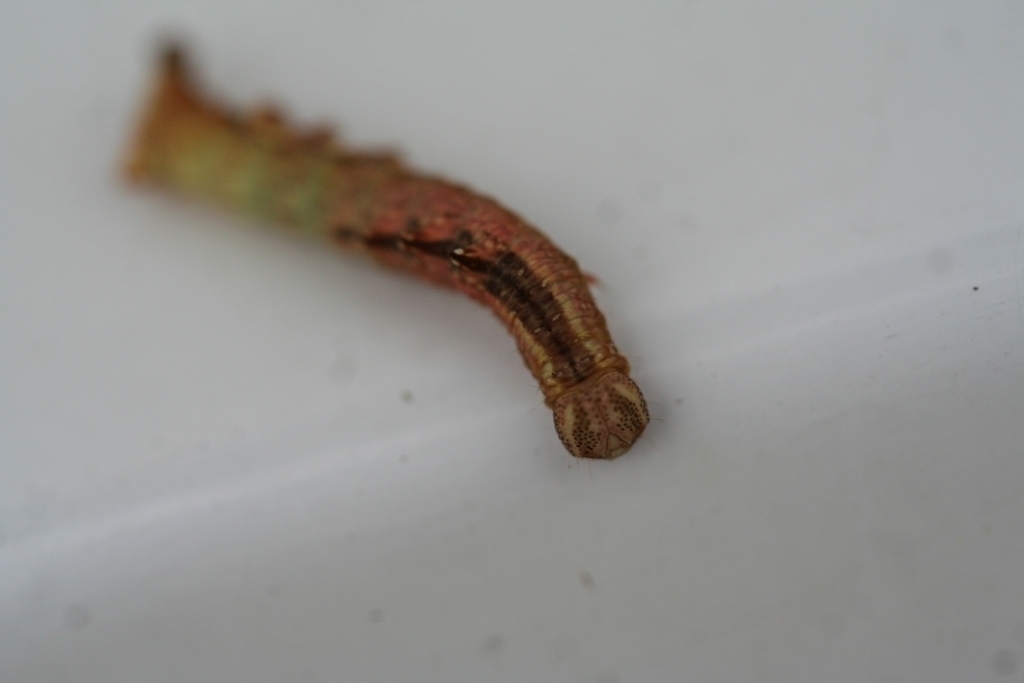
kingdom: Animalia
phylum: Arthropoda
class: Insecta
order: Lepidoptera
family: Notodontidae
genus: Notodonta
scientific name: Notodonta dromedarius
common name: Iron prominent
